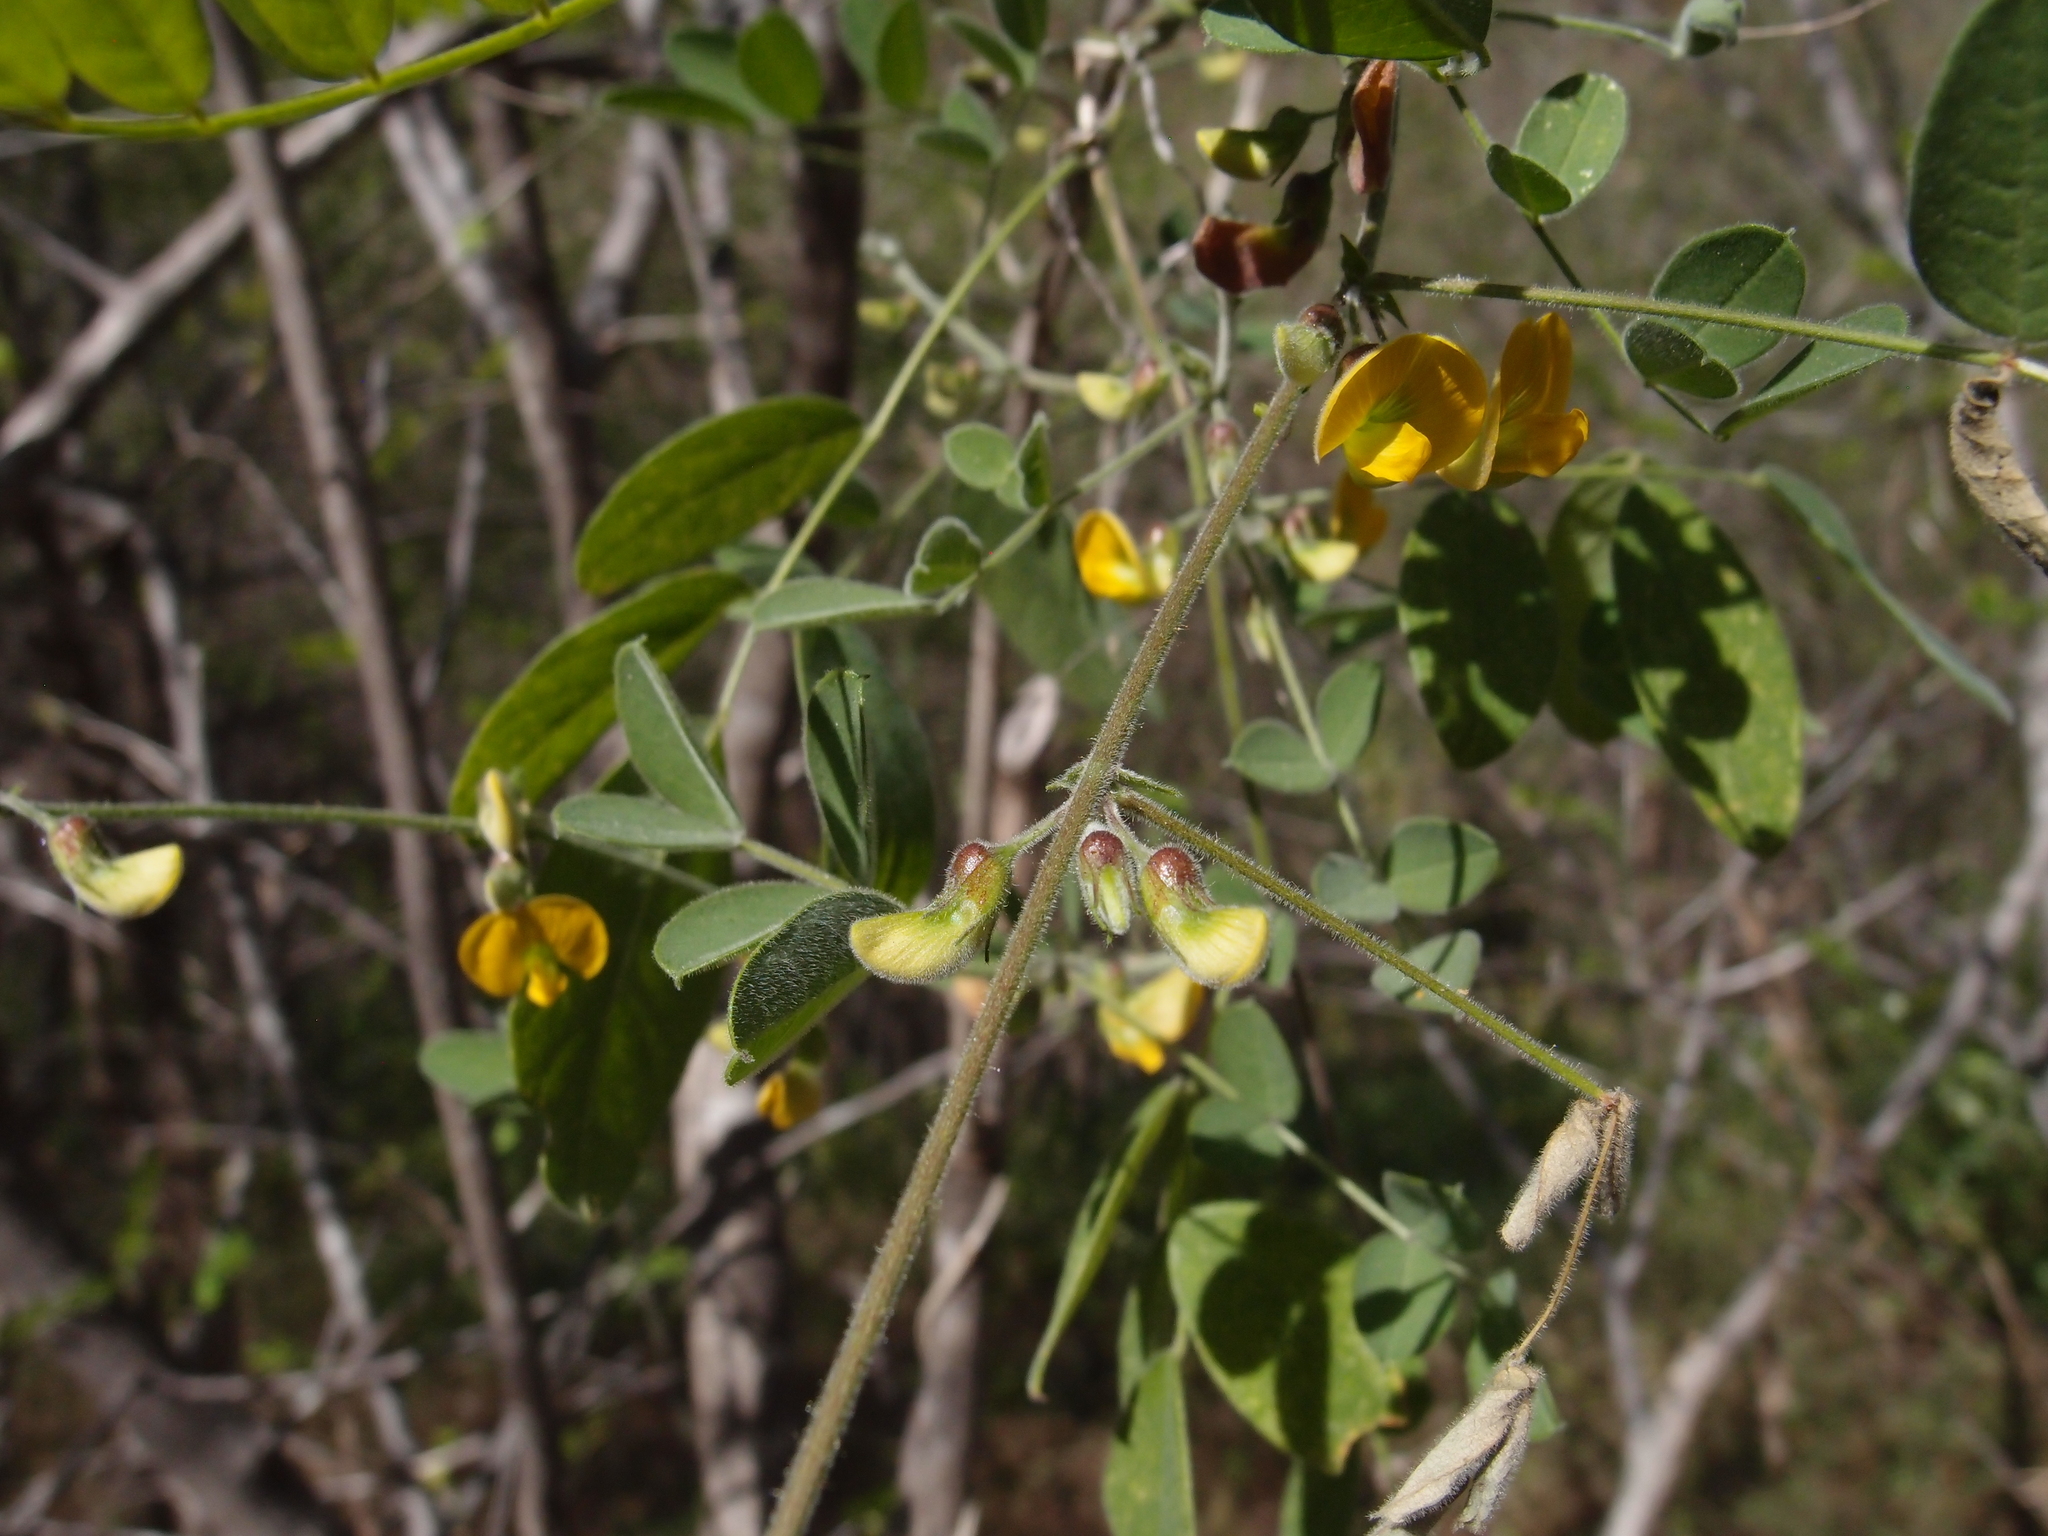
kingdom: Plantae
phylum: Tracheophyta
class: Magnoliopsida
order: Fabales
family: Fabaceae
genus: Nissolia
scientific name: Nissolia gentryi
